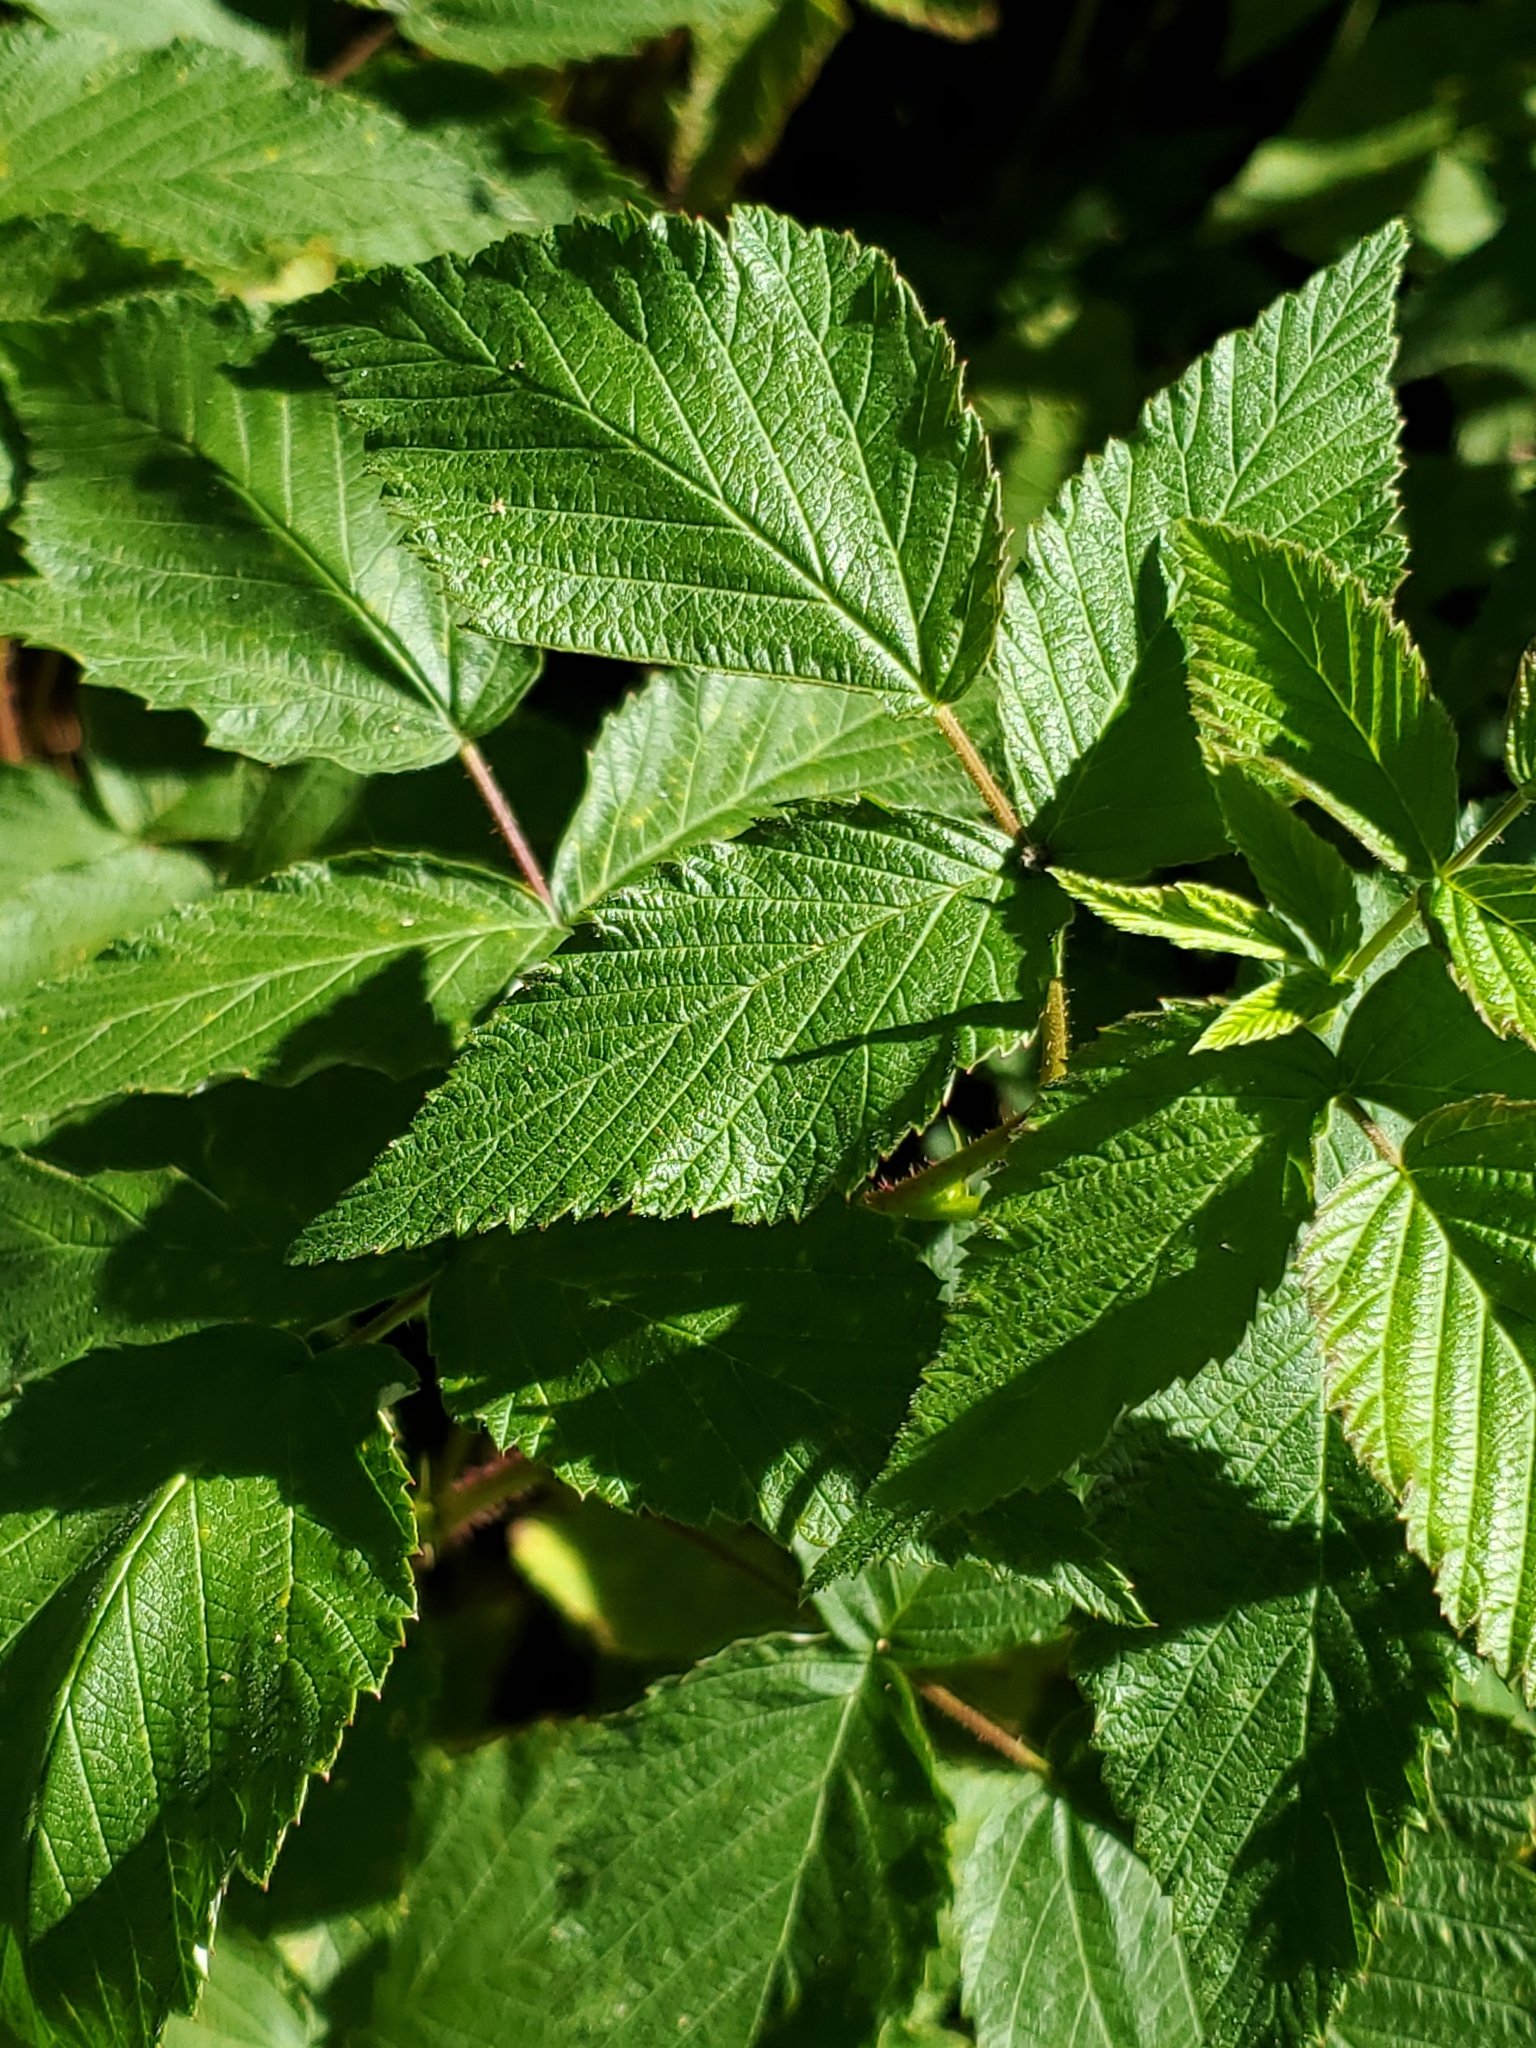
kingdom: Plantae
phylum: Tracheophyta
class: Magnoliopsida
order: Rosales
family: Rosaceae
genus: Rubus
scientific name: Rubus idaeus
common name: Raspberry
